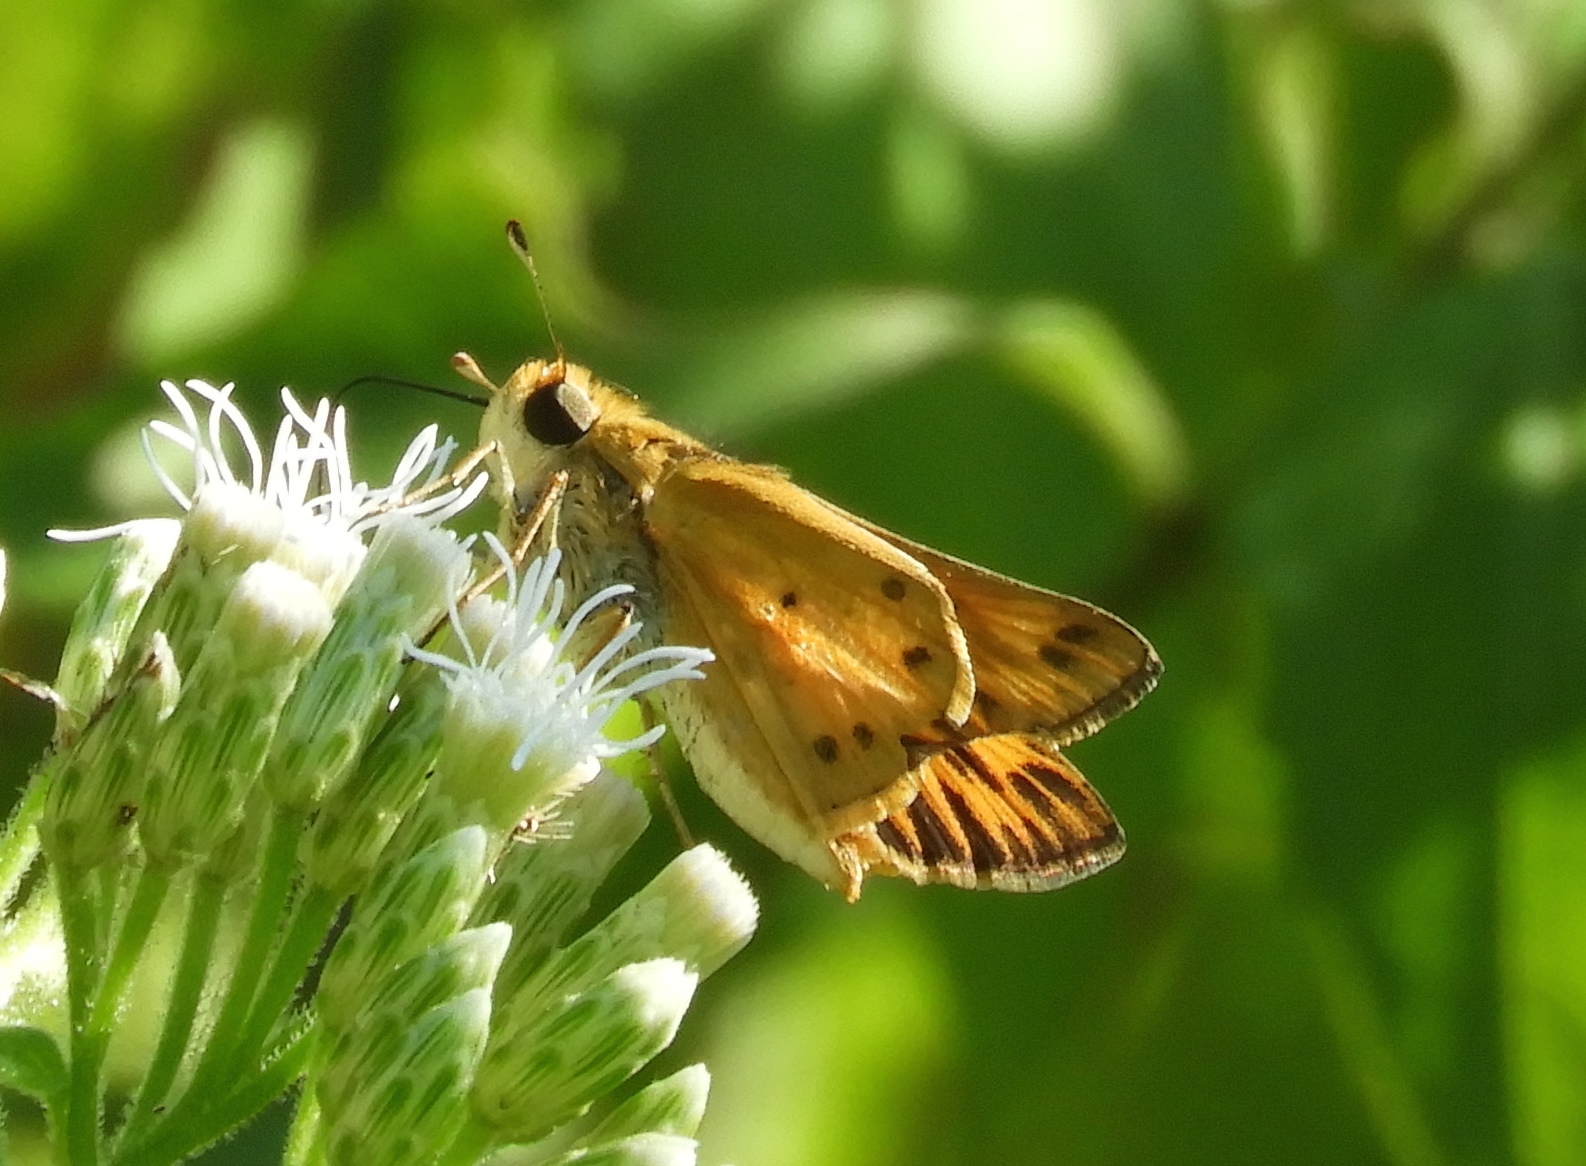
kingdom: Animalia
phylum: Arthropoda
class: Insecta
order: Lepidoptera
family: Hesperiidae
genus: Hylephila
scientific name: Hylephila
